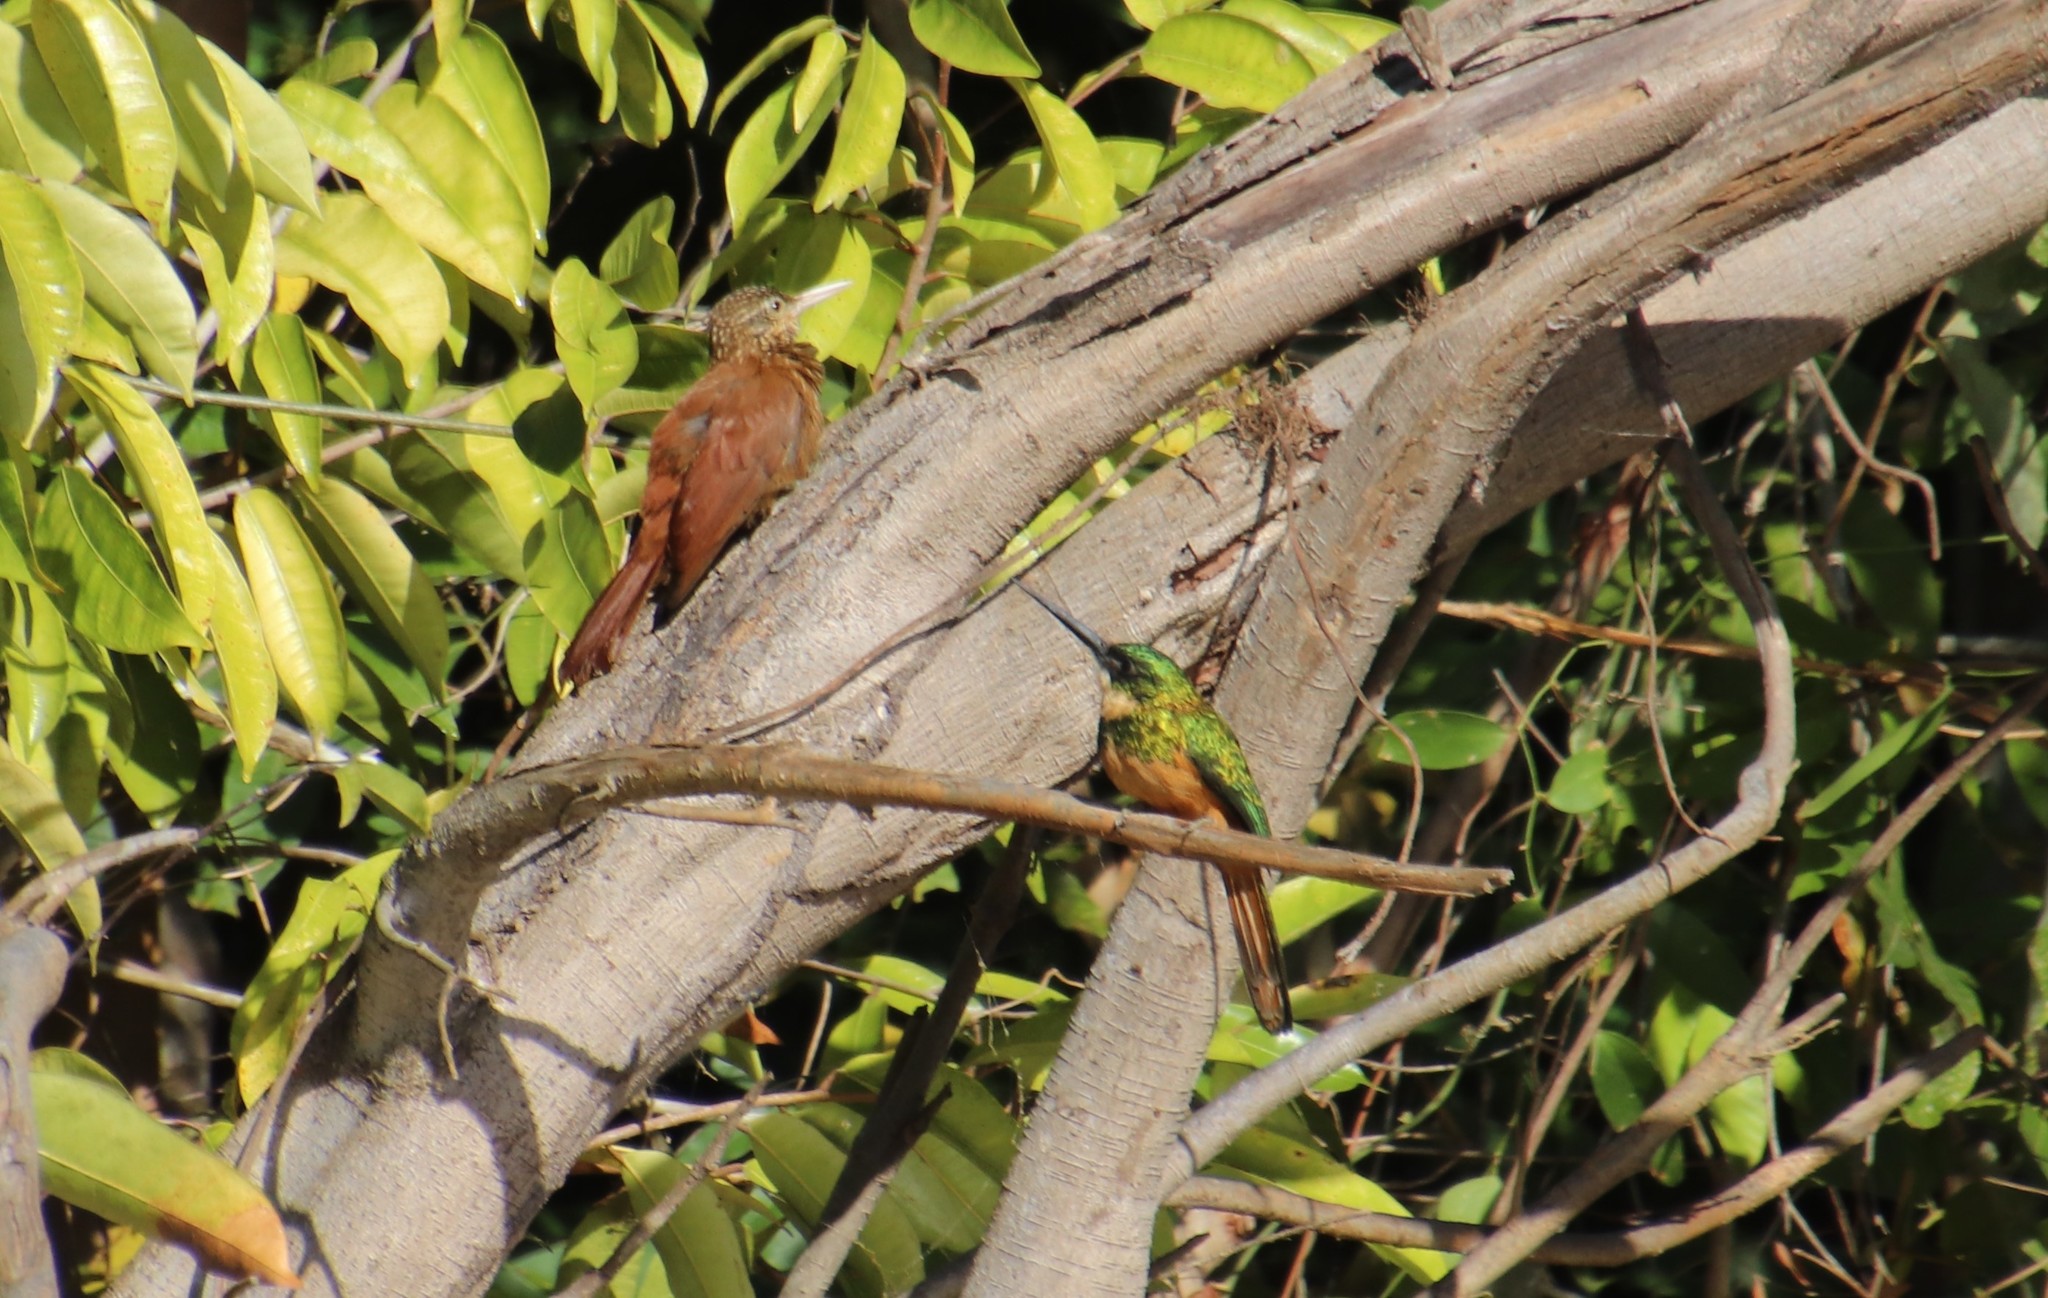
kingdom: Animalia
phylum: Chordata
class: Aves
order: Piciformes
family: Galbulidae
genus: Galbula
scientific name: Galbula ruficauda
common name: Rufous-tailed jacamar
